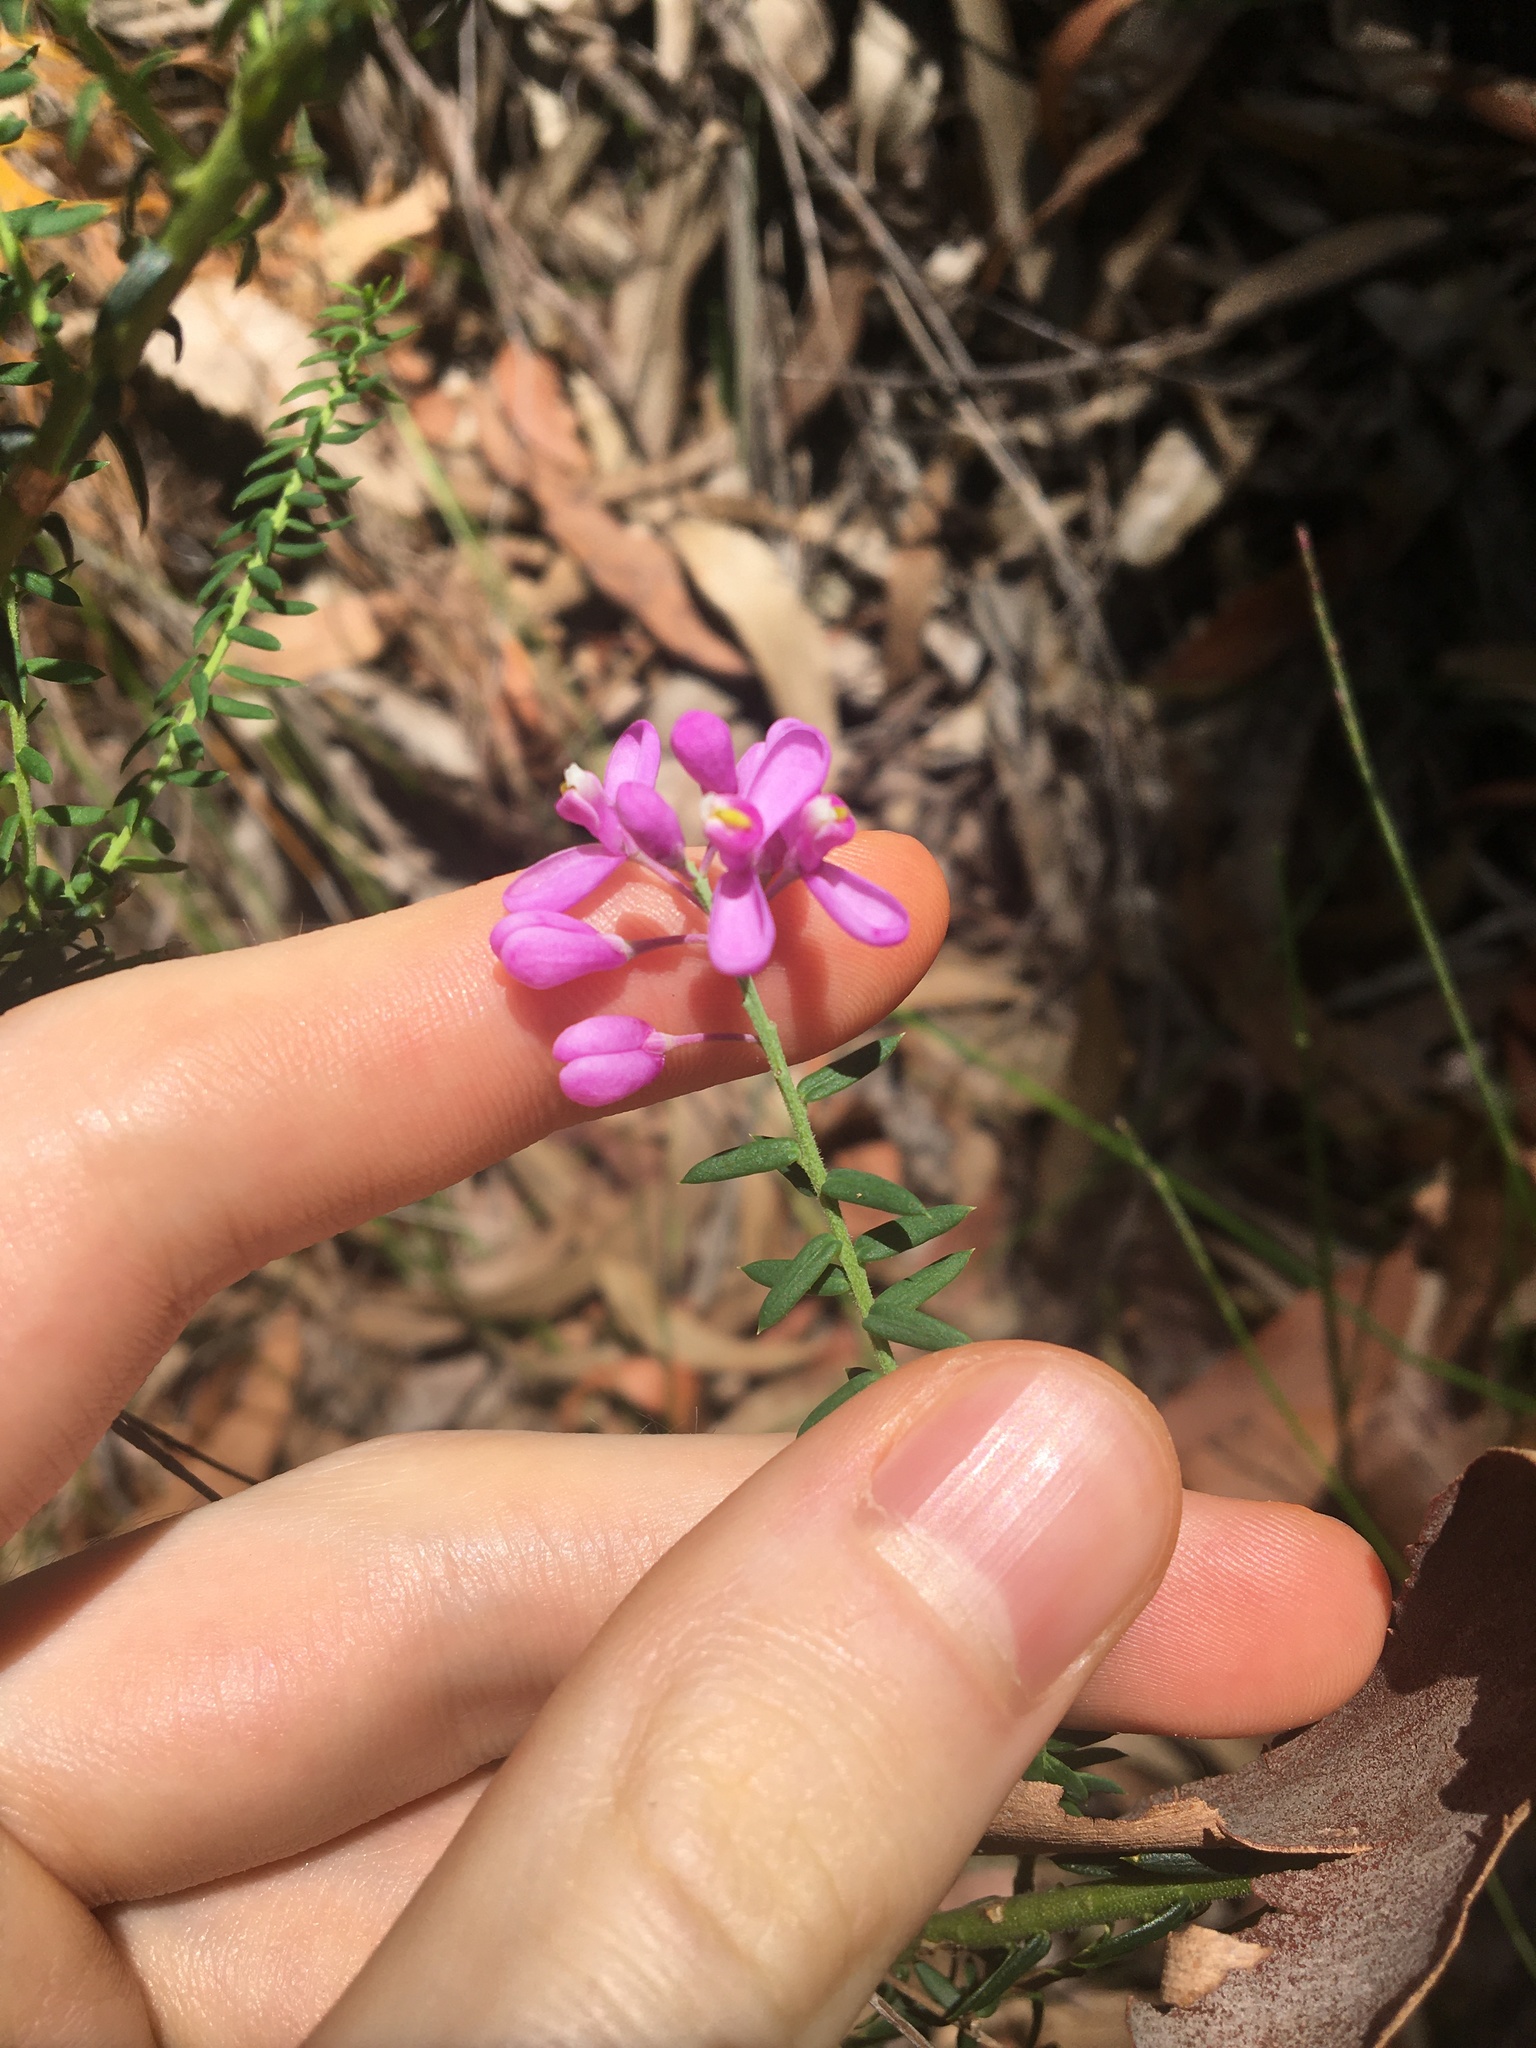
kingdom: Plantae
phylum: Tracheophyta
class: Magnoliopsida
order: Fabales
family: Polygalaceae
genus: Comesperma
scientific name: Comesperma ericinum
